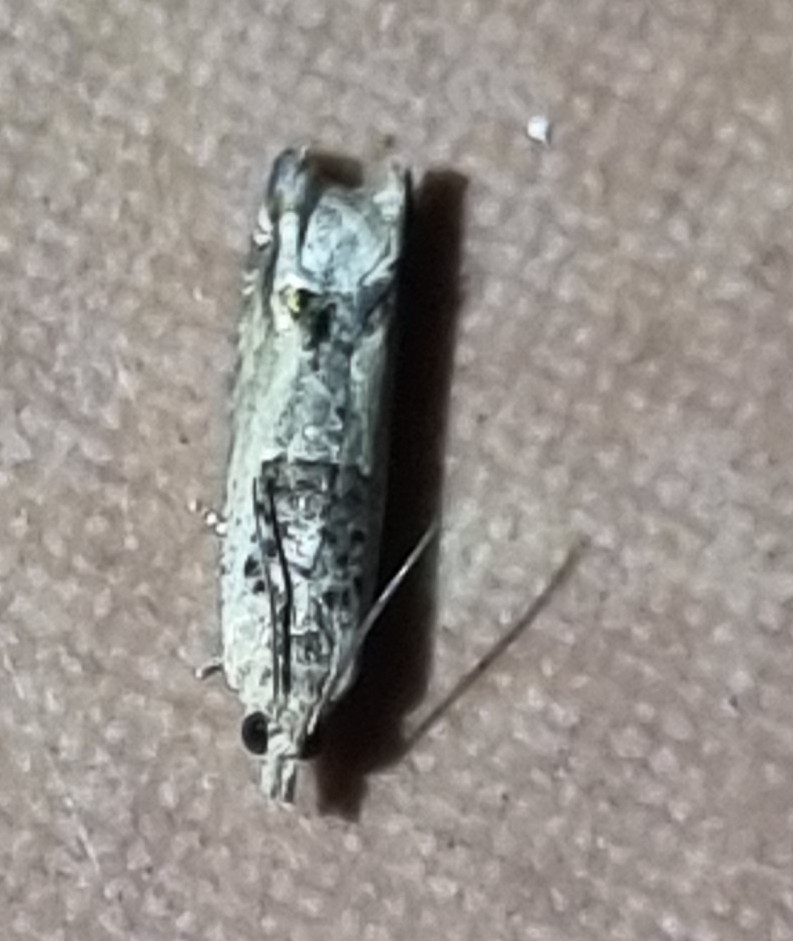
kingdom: Animalia
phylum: Arthropoda
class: Insecta
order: Lepidoptera
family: Tortricidae
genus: Crocidosema
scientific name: Crocidosema plebejana
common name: Southern bell
